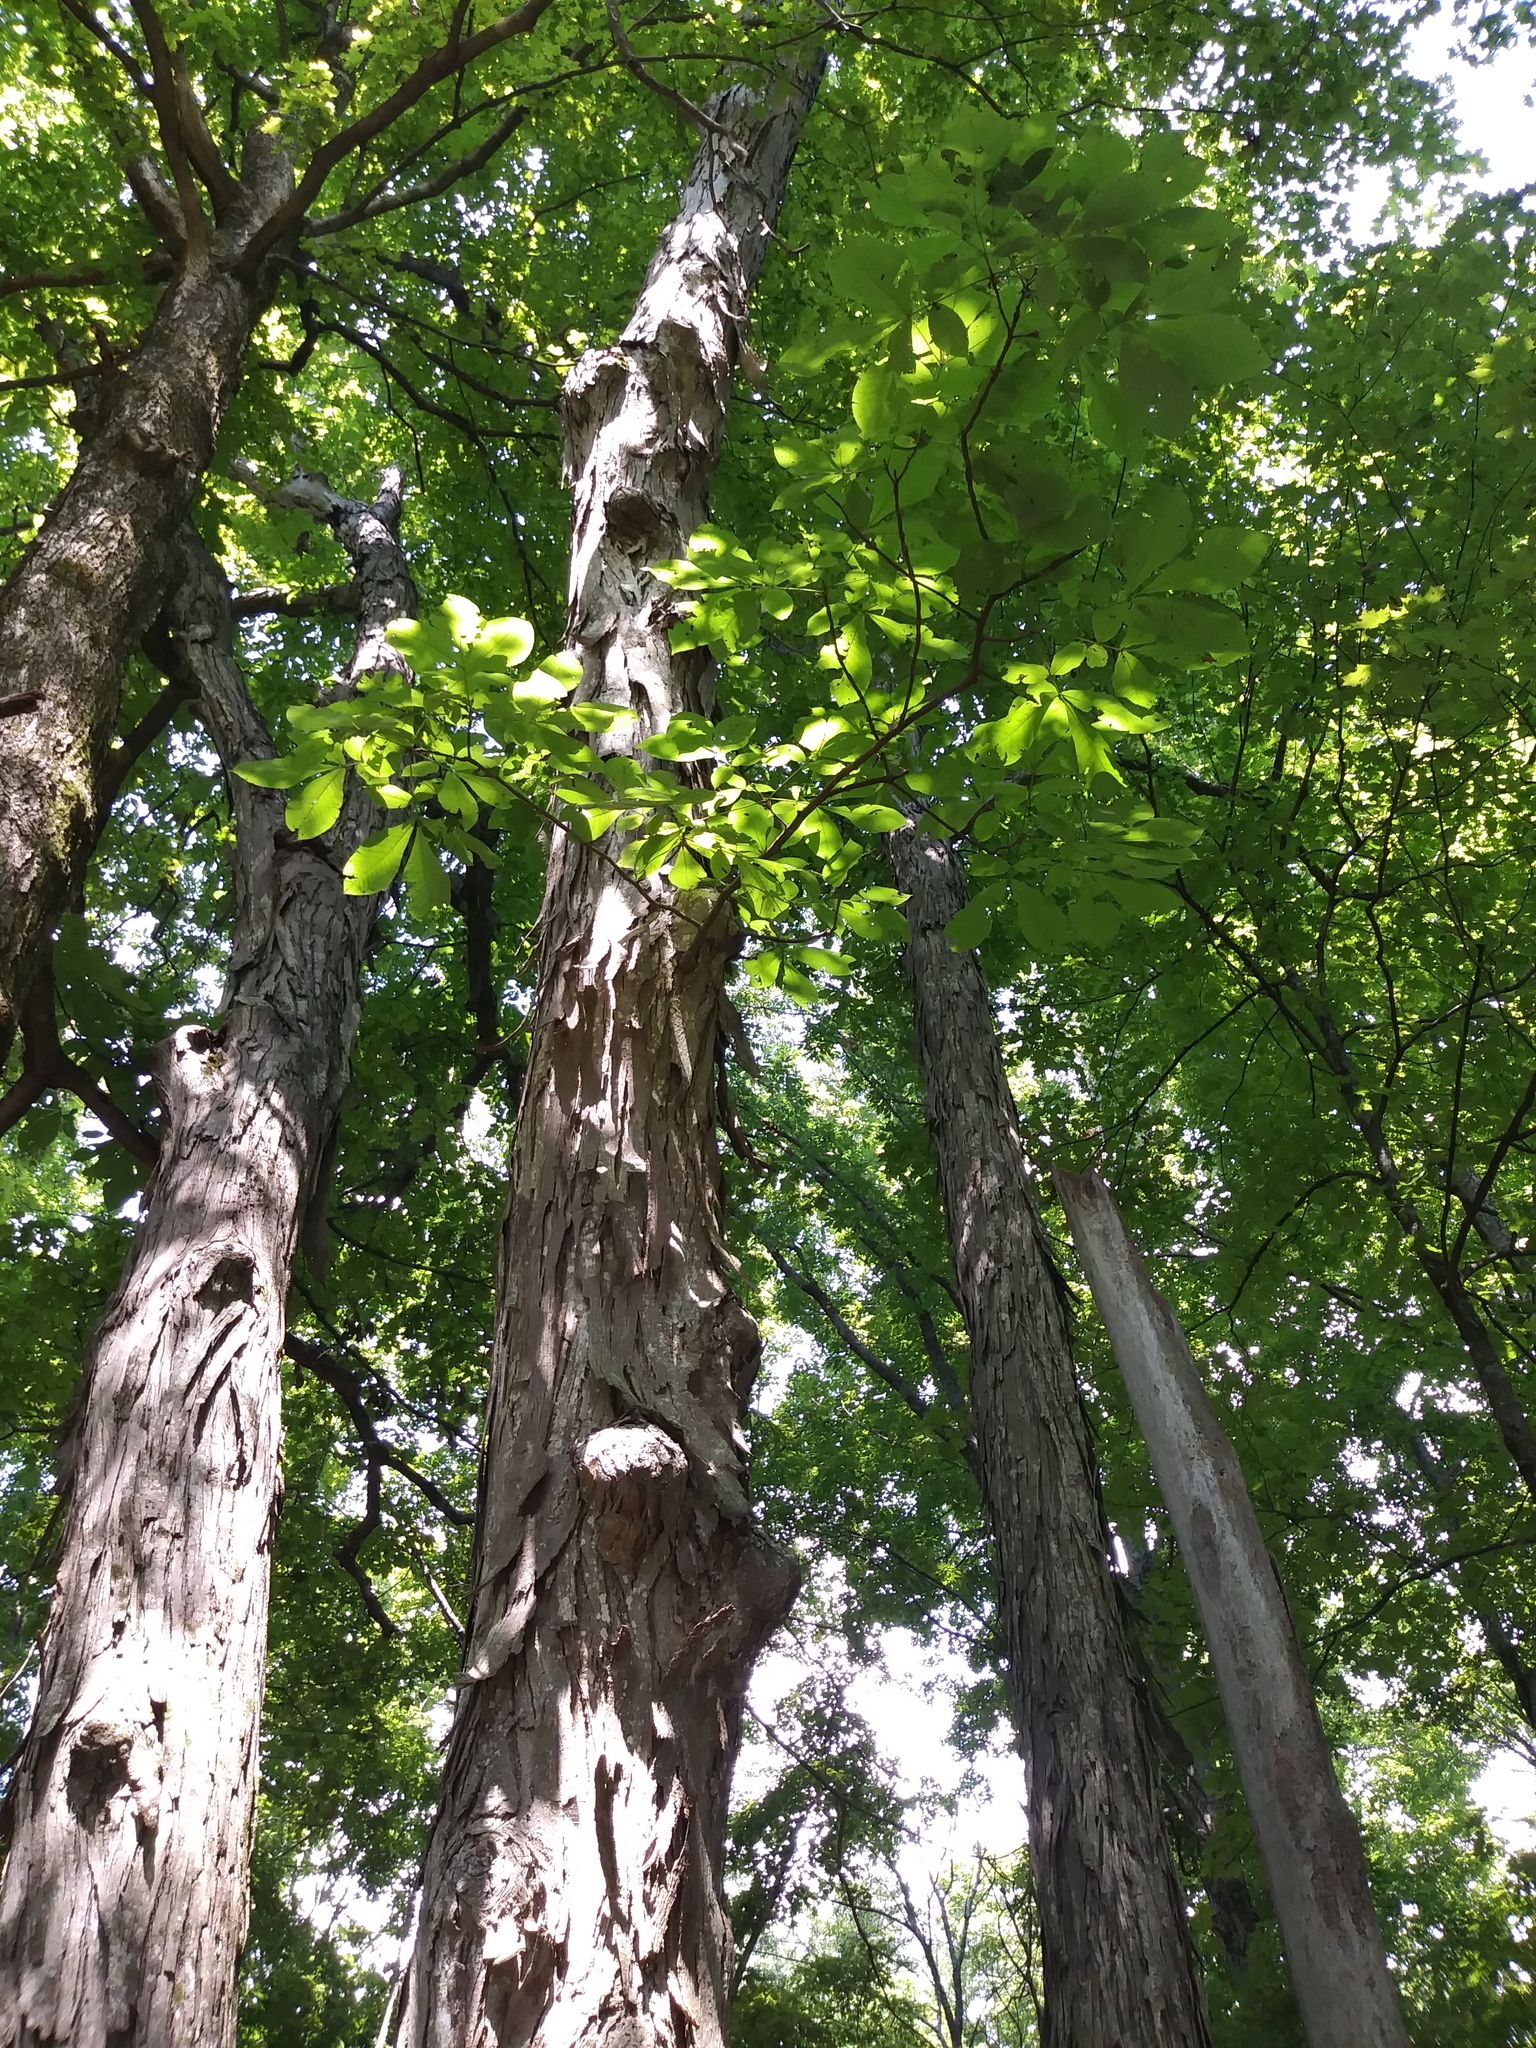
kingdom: Plantae
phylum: Tracheophyta
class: Magnoliopsida
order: Fagales
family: Juglandaceae
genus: Carya
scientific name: Carya ovata
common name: Shagbark hickory
